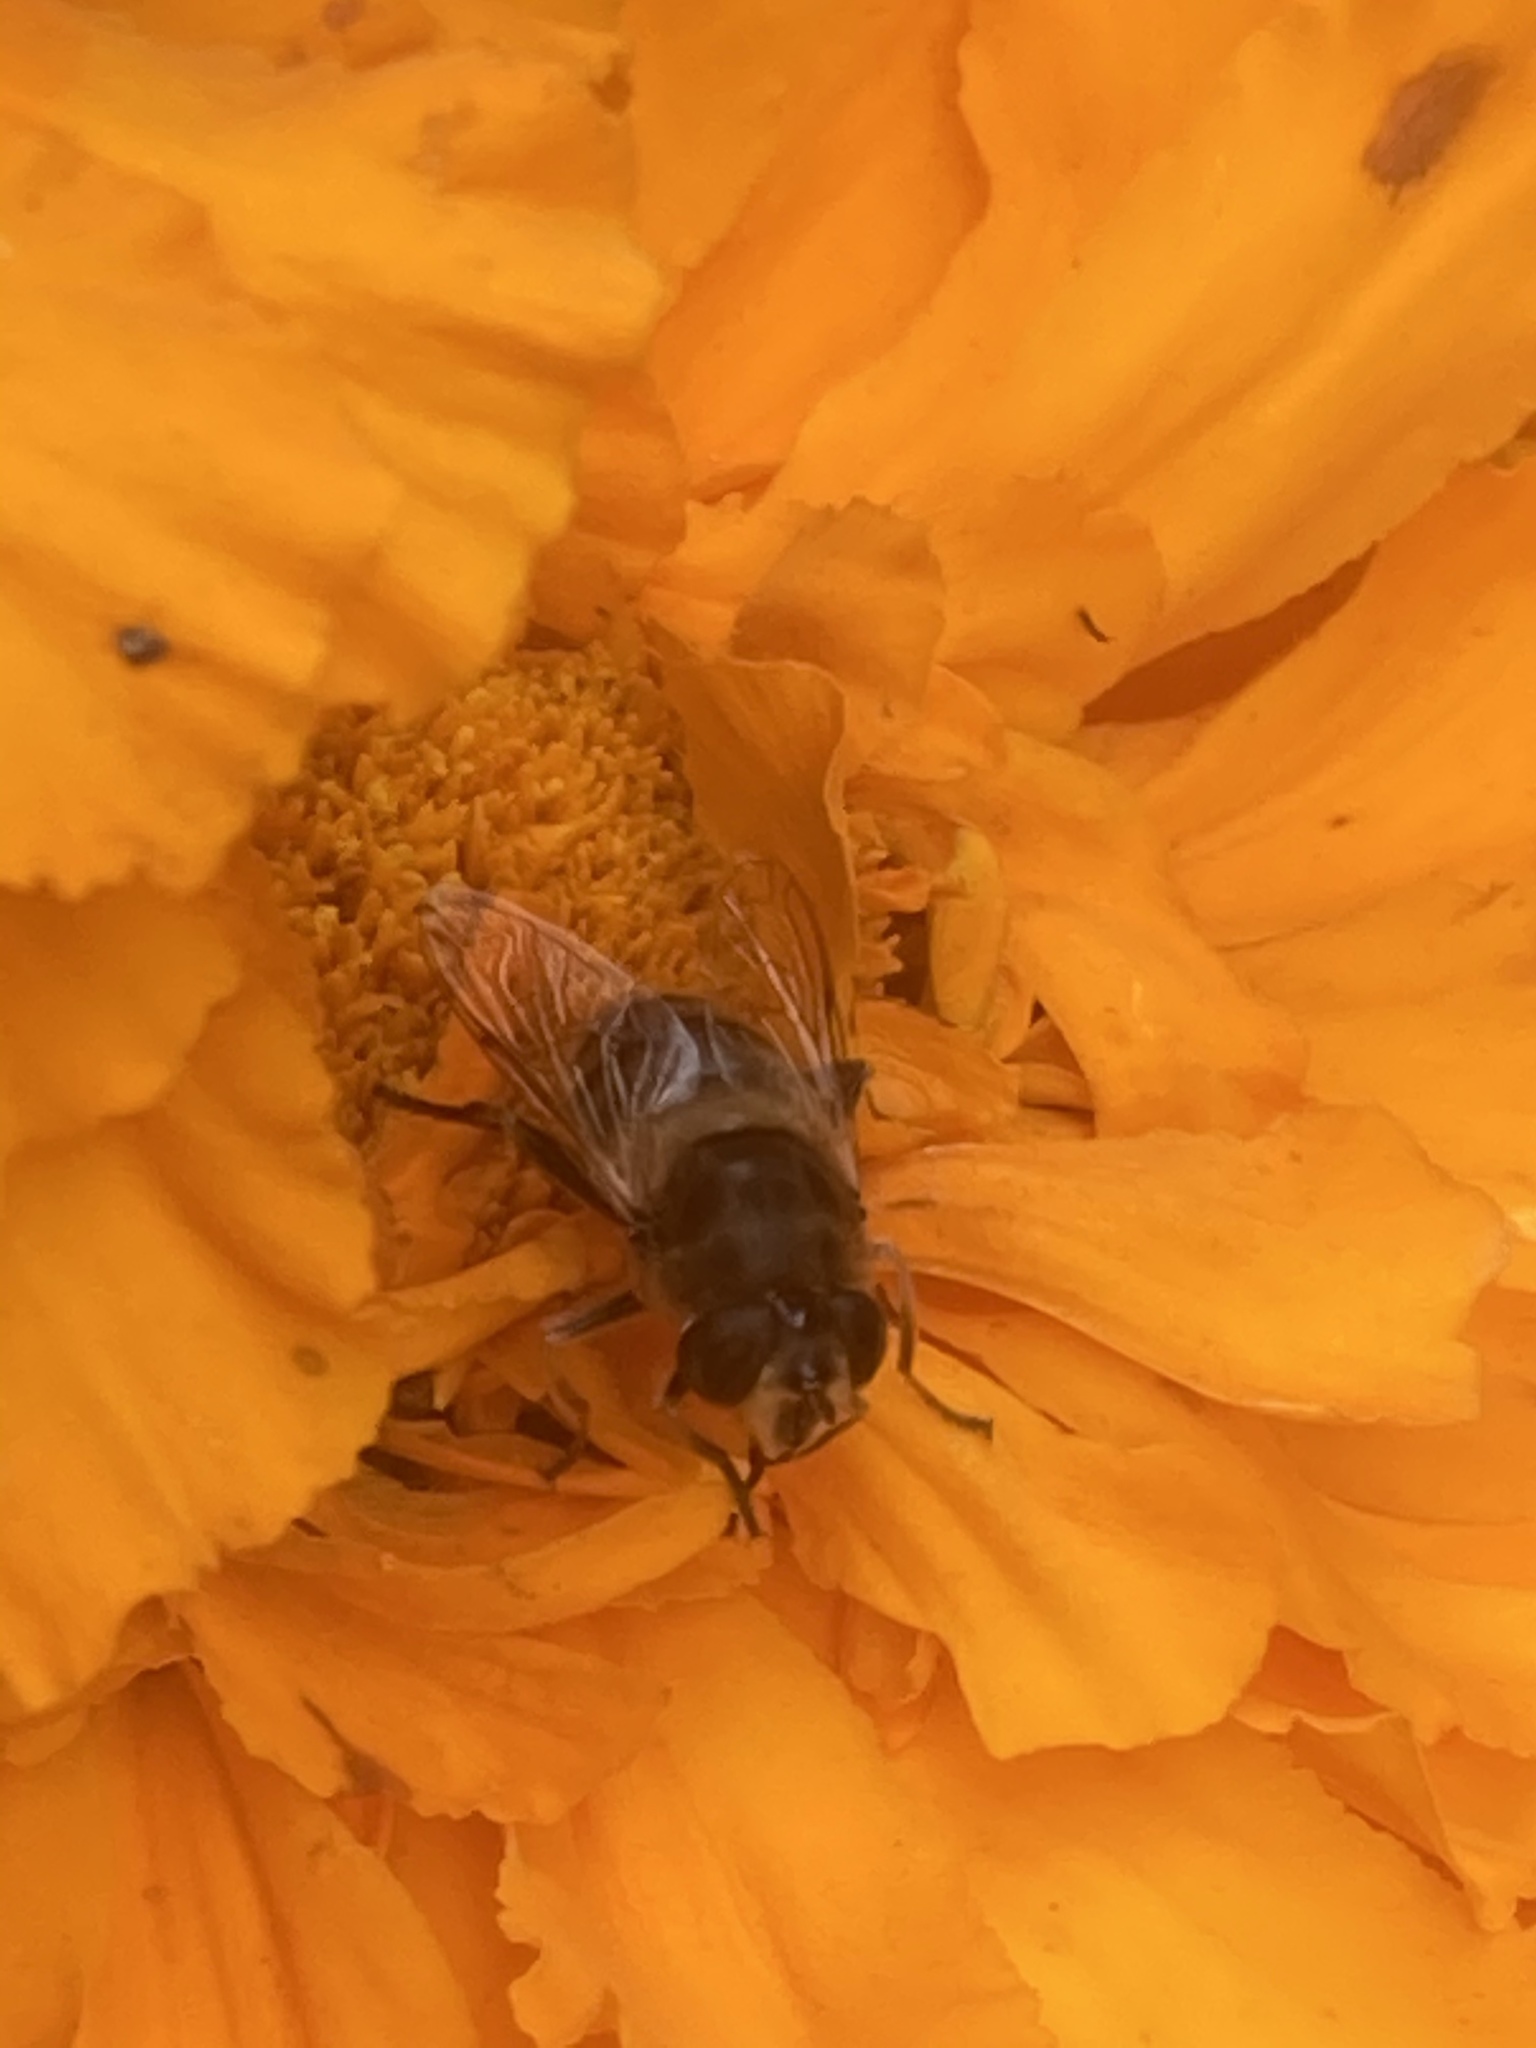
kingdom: Animalia
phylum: Arthropoda
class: Insecta
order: Diptera
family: Syrphidae
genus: Eristalis
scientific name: Eristalis tenax
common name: Drone fly
